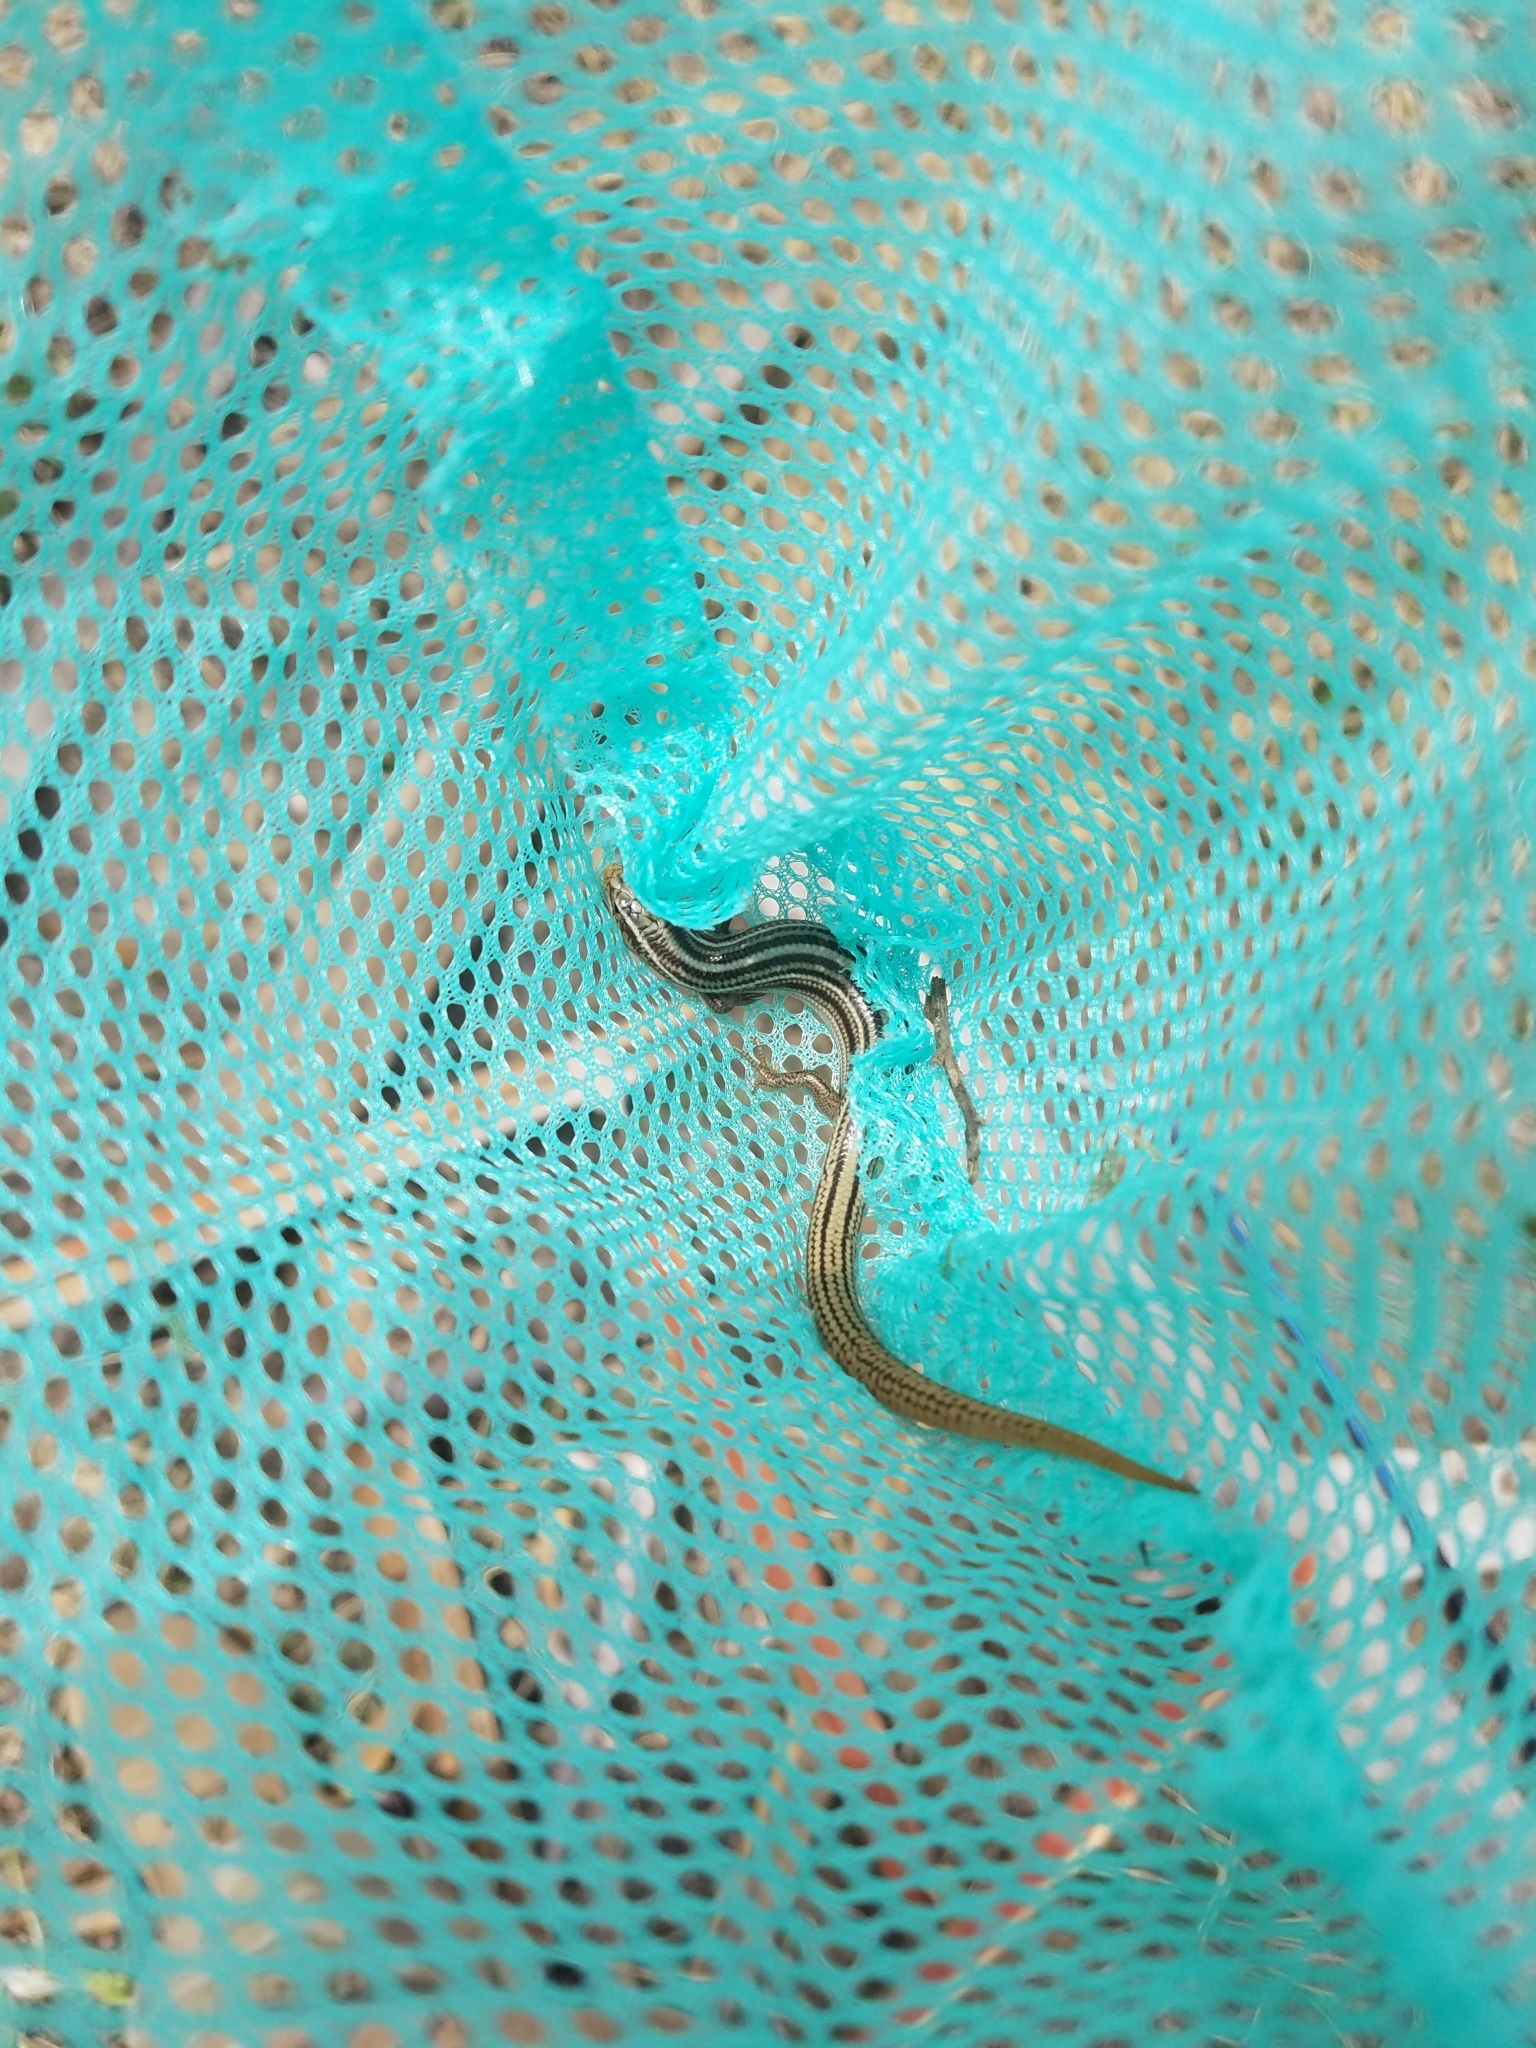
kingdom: Animalia
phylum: Chordata
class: Squamata
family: Scincidae
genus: Plestiodon
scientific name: Plestiodon multivirgatus
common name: Many-lined skink
